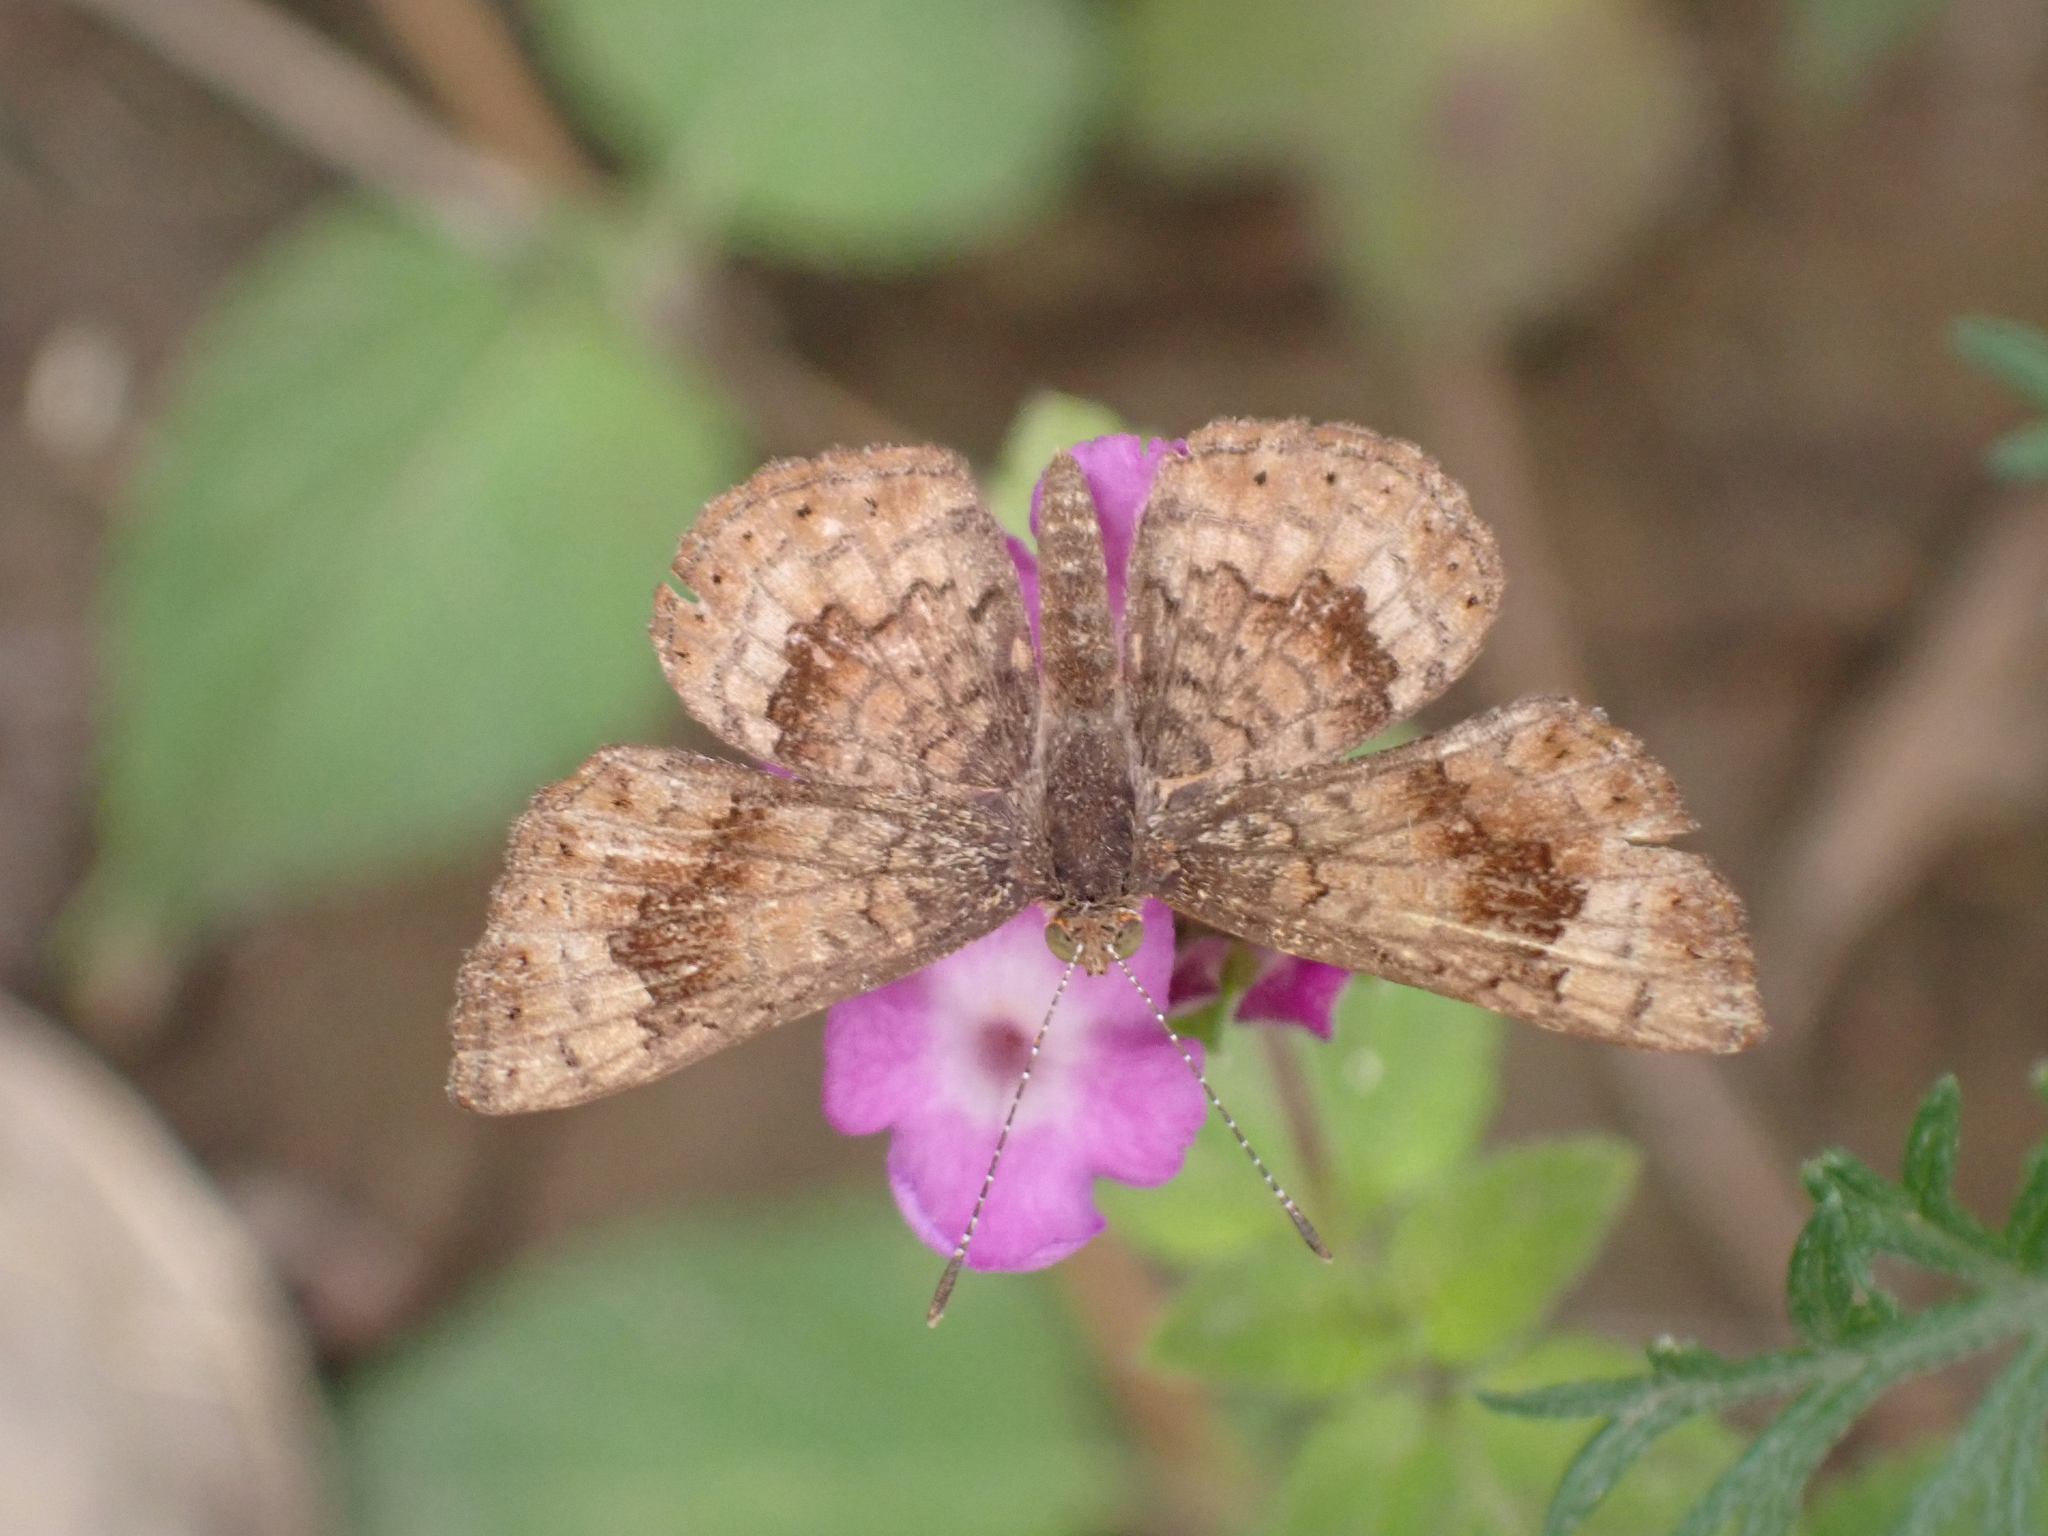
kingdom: Animalia
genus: Calephelis
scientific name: Calephelis nemesis
